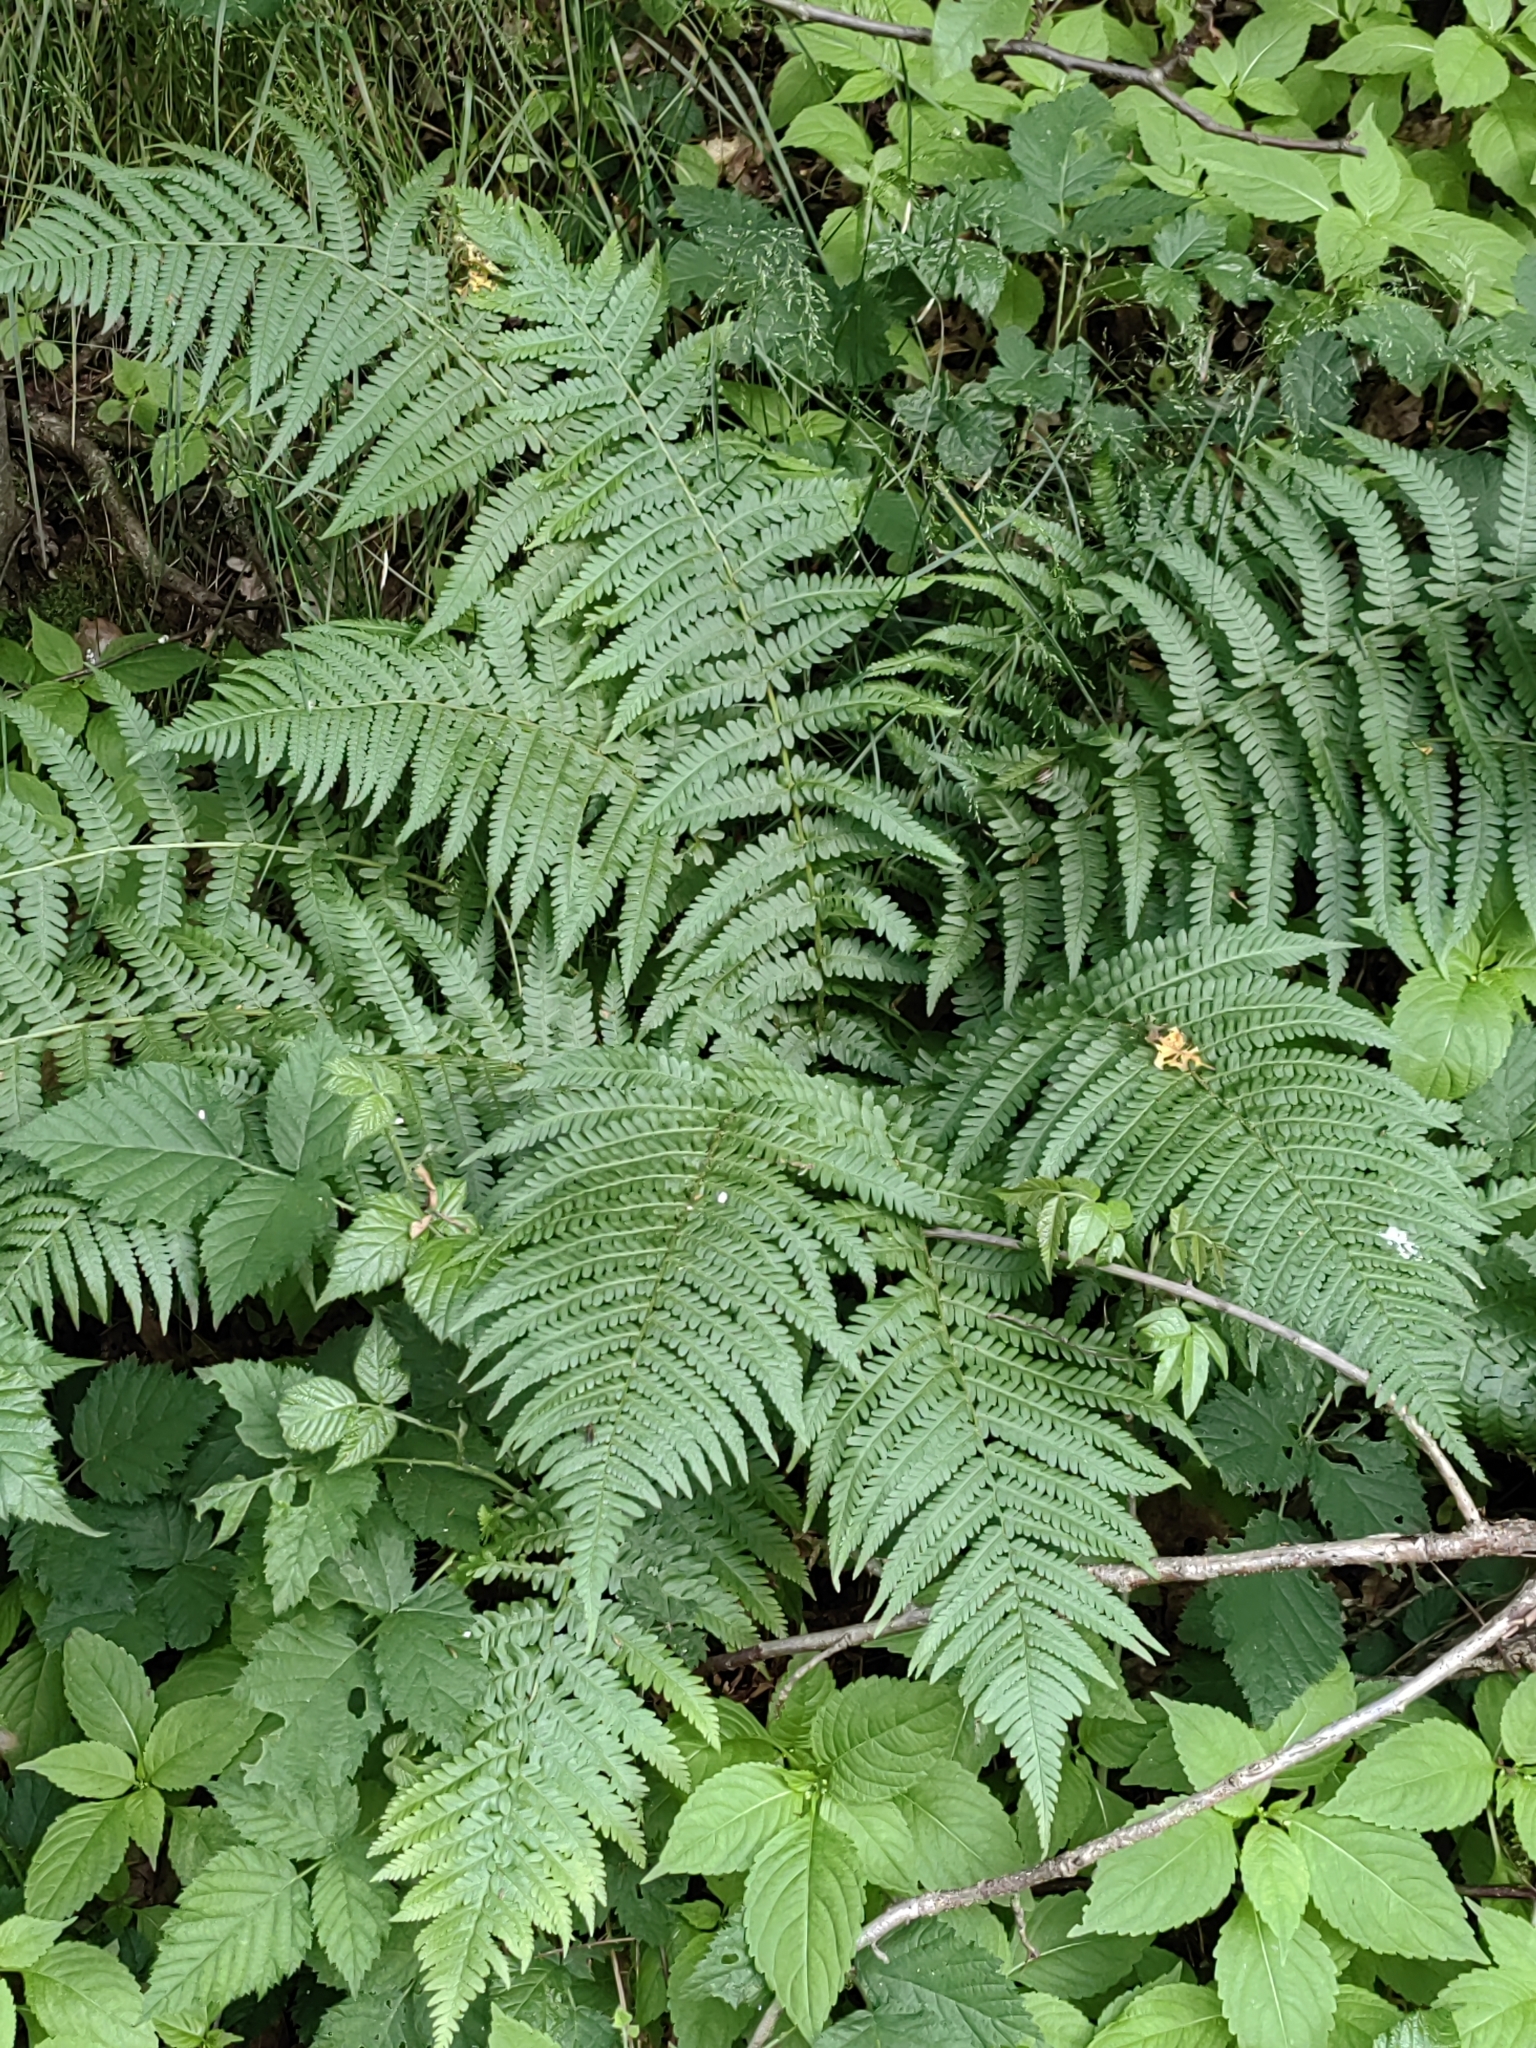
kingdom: Plantae
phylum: Tracheophyta
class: Polypodiopsida
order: Polypodiales
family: Dryopteridaceae
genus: Dryopteris
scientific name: Dryopteris filix-mas
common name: Male fern
